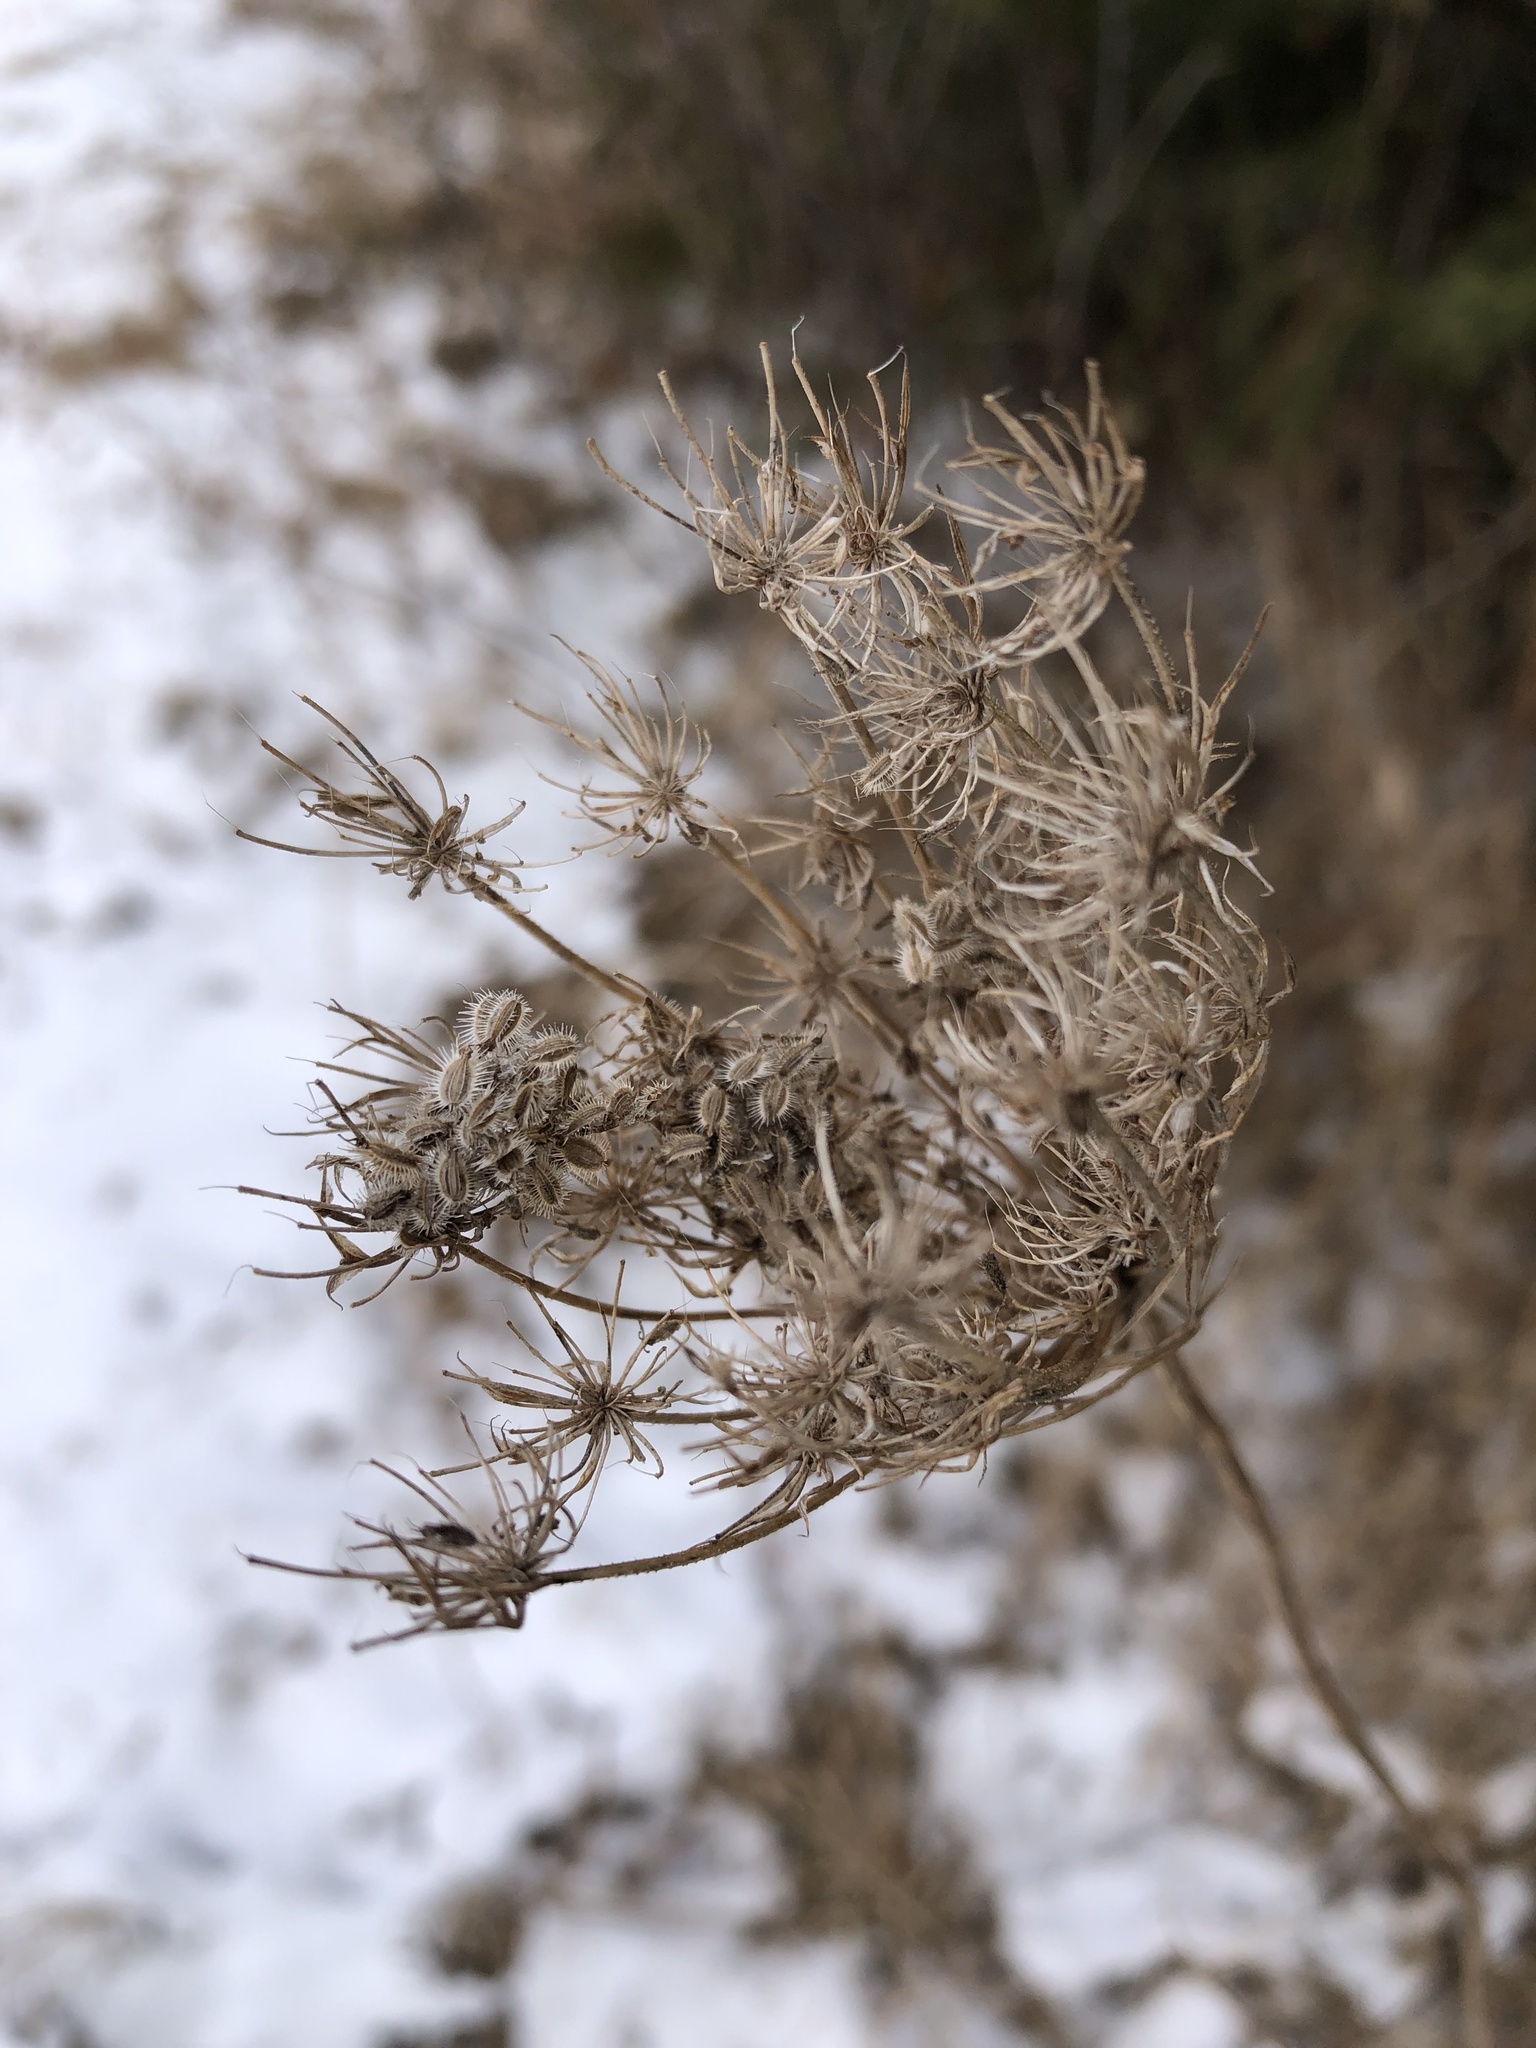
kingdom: Plantae
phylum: Tracheophyta
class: Magnoliopsida
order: Apiales
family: Apiaceae
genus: Daucus
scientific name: Daucus carota
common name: Wild carrot
